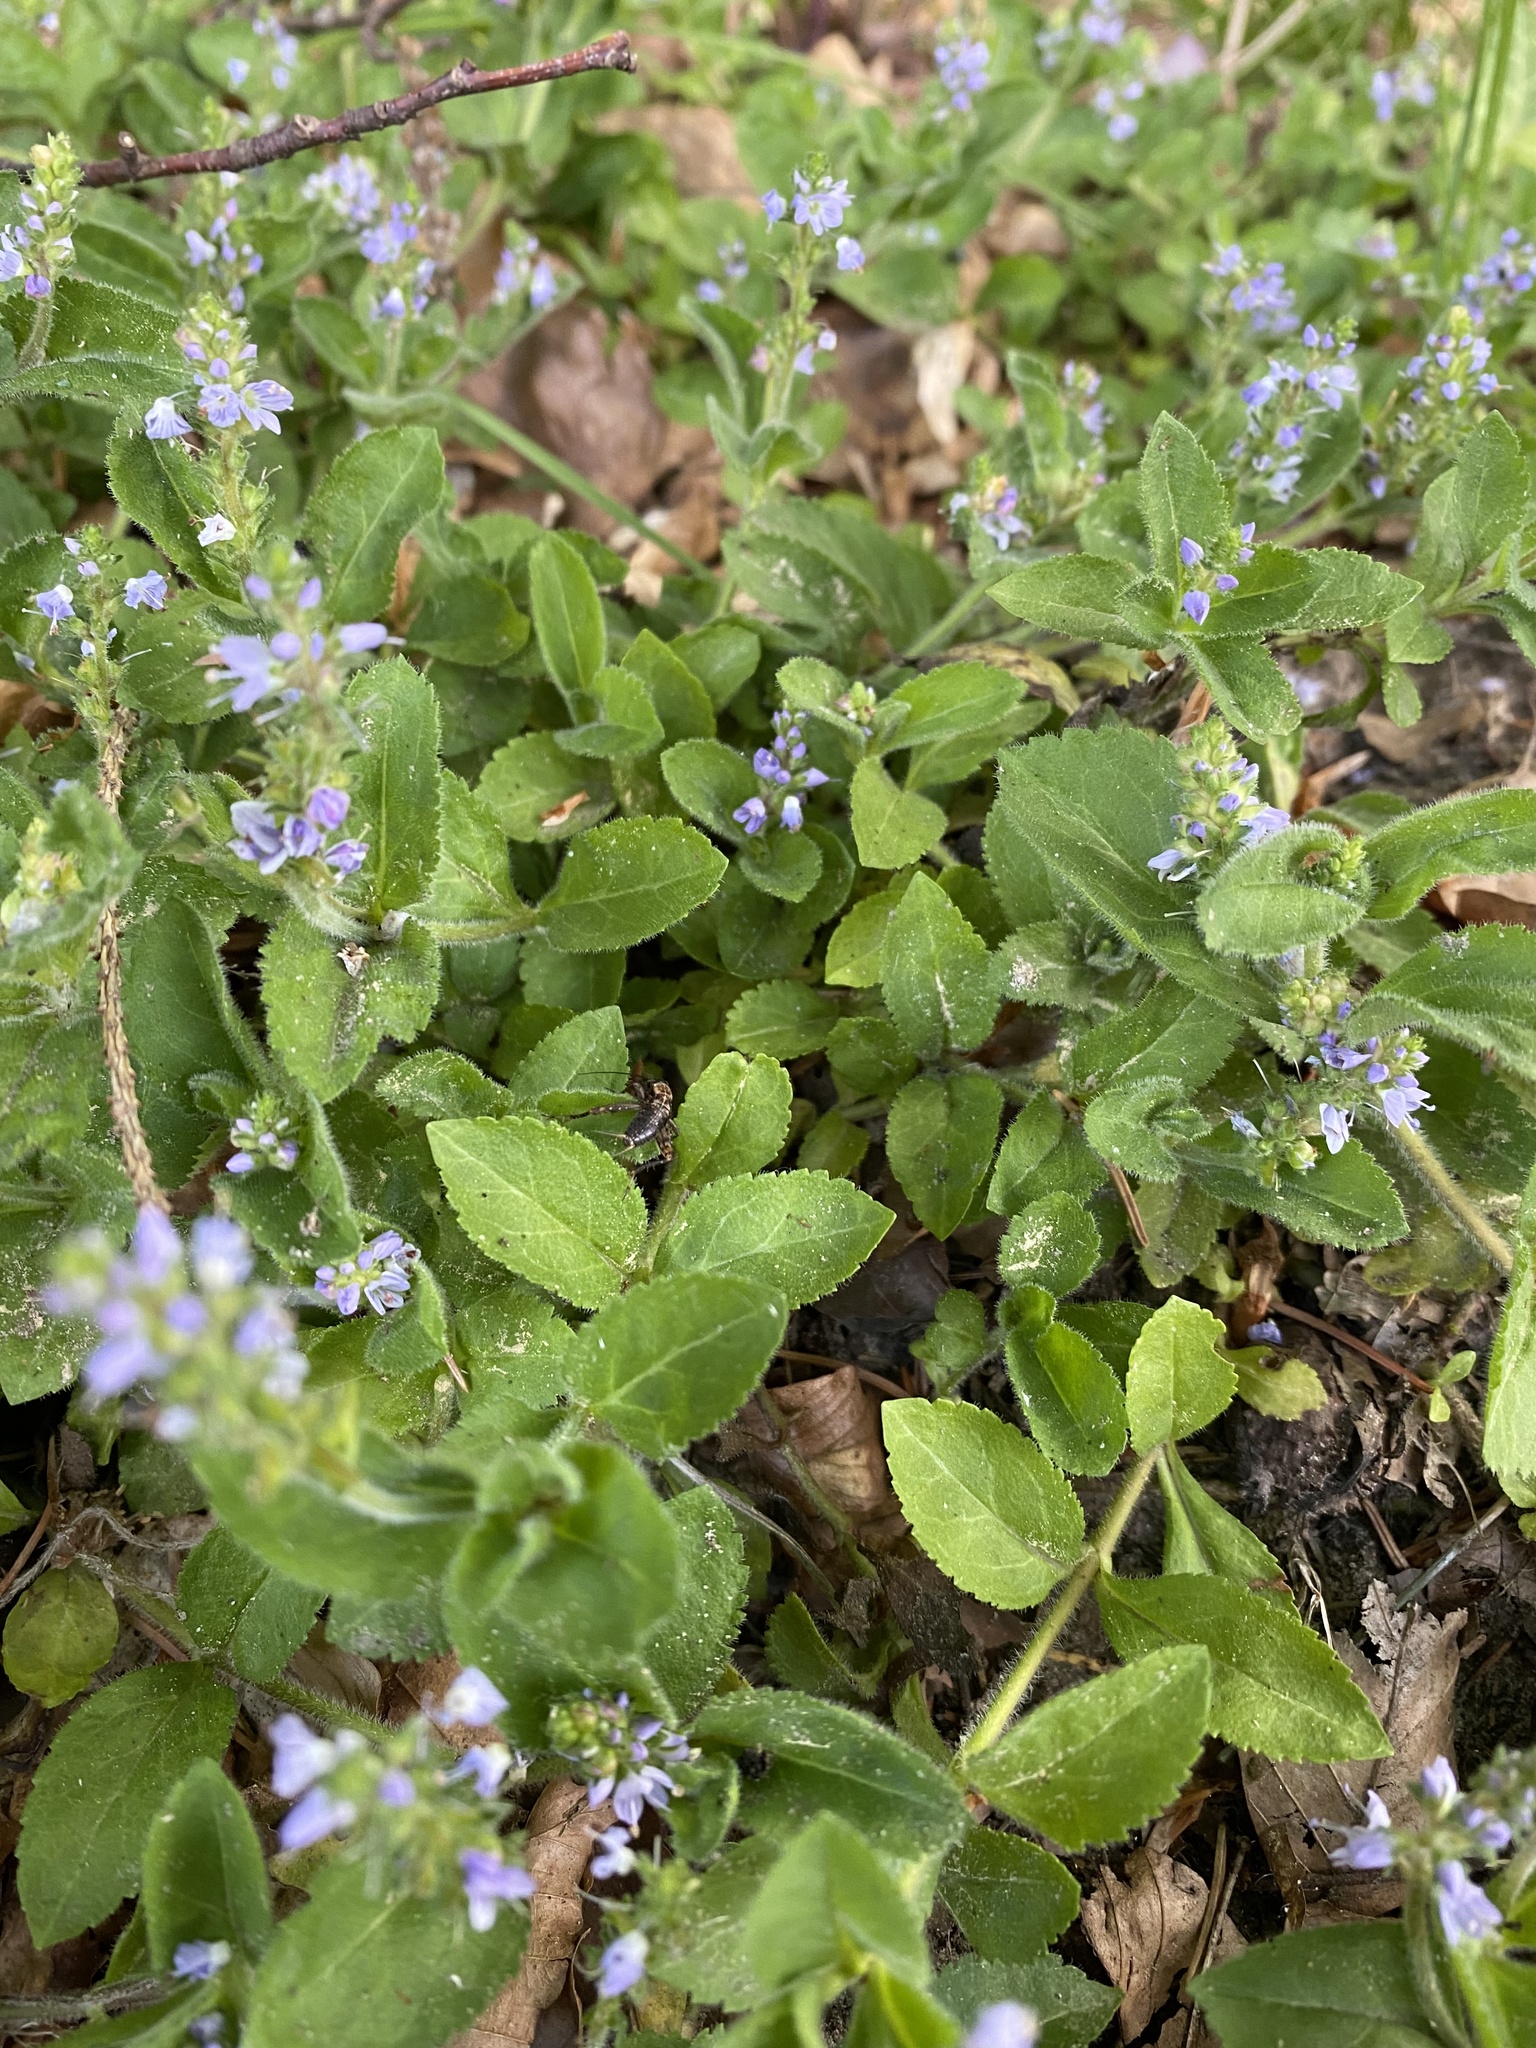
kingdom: Plantae
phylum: Tracheophyta
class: Magnoliopsida
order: Lamiales
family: Plantaginaceae
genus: Veronica
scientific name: Veronica officinalis
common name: Common speedwell
